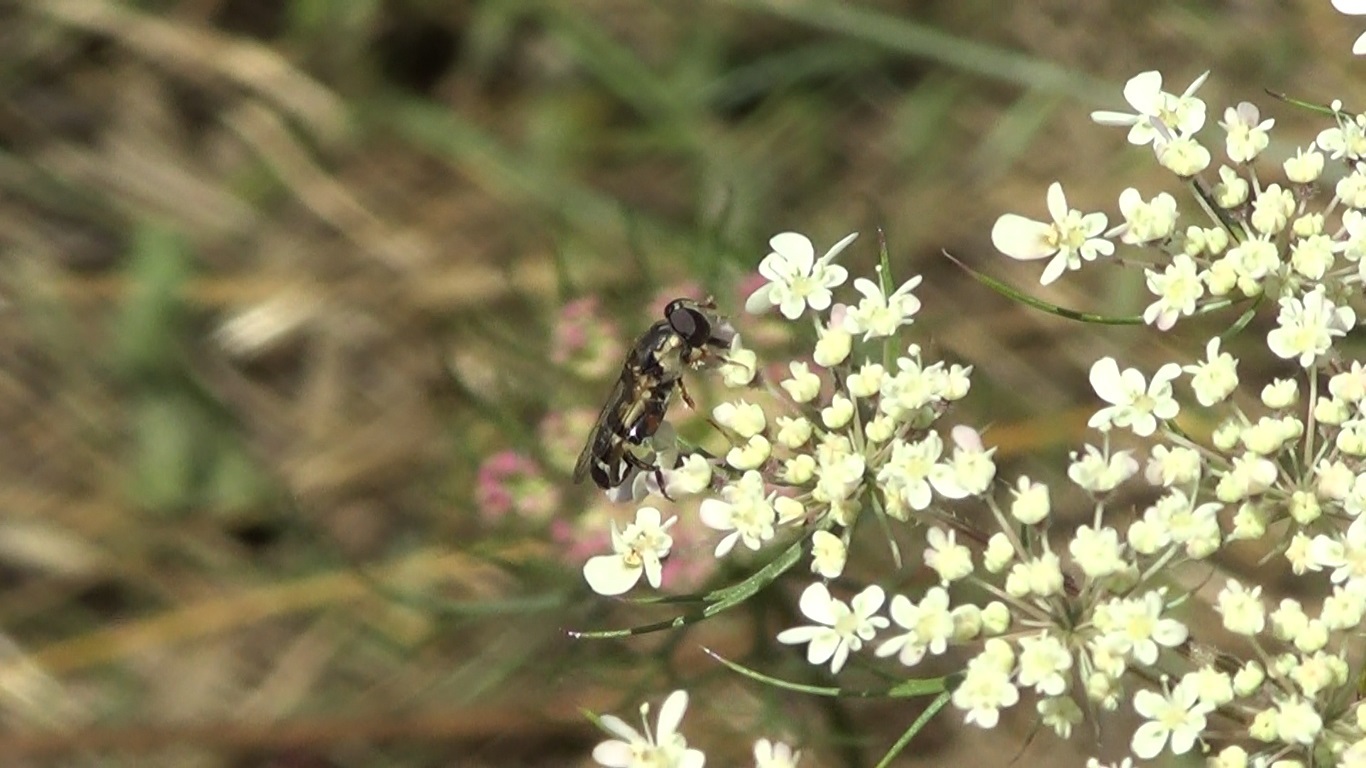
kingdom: Animalia
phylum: Arthropoda
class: Insecta
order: Diptera
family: Syrphidae
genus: Syritta
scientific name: Syritta pipiens
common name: Hover fly
